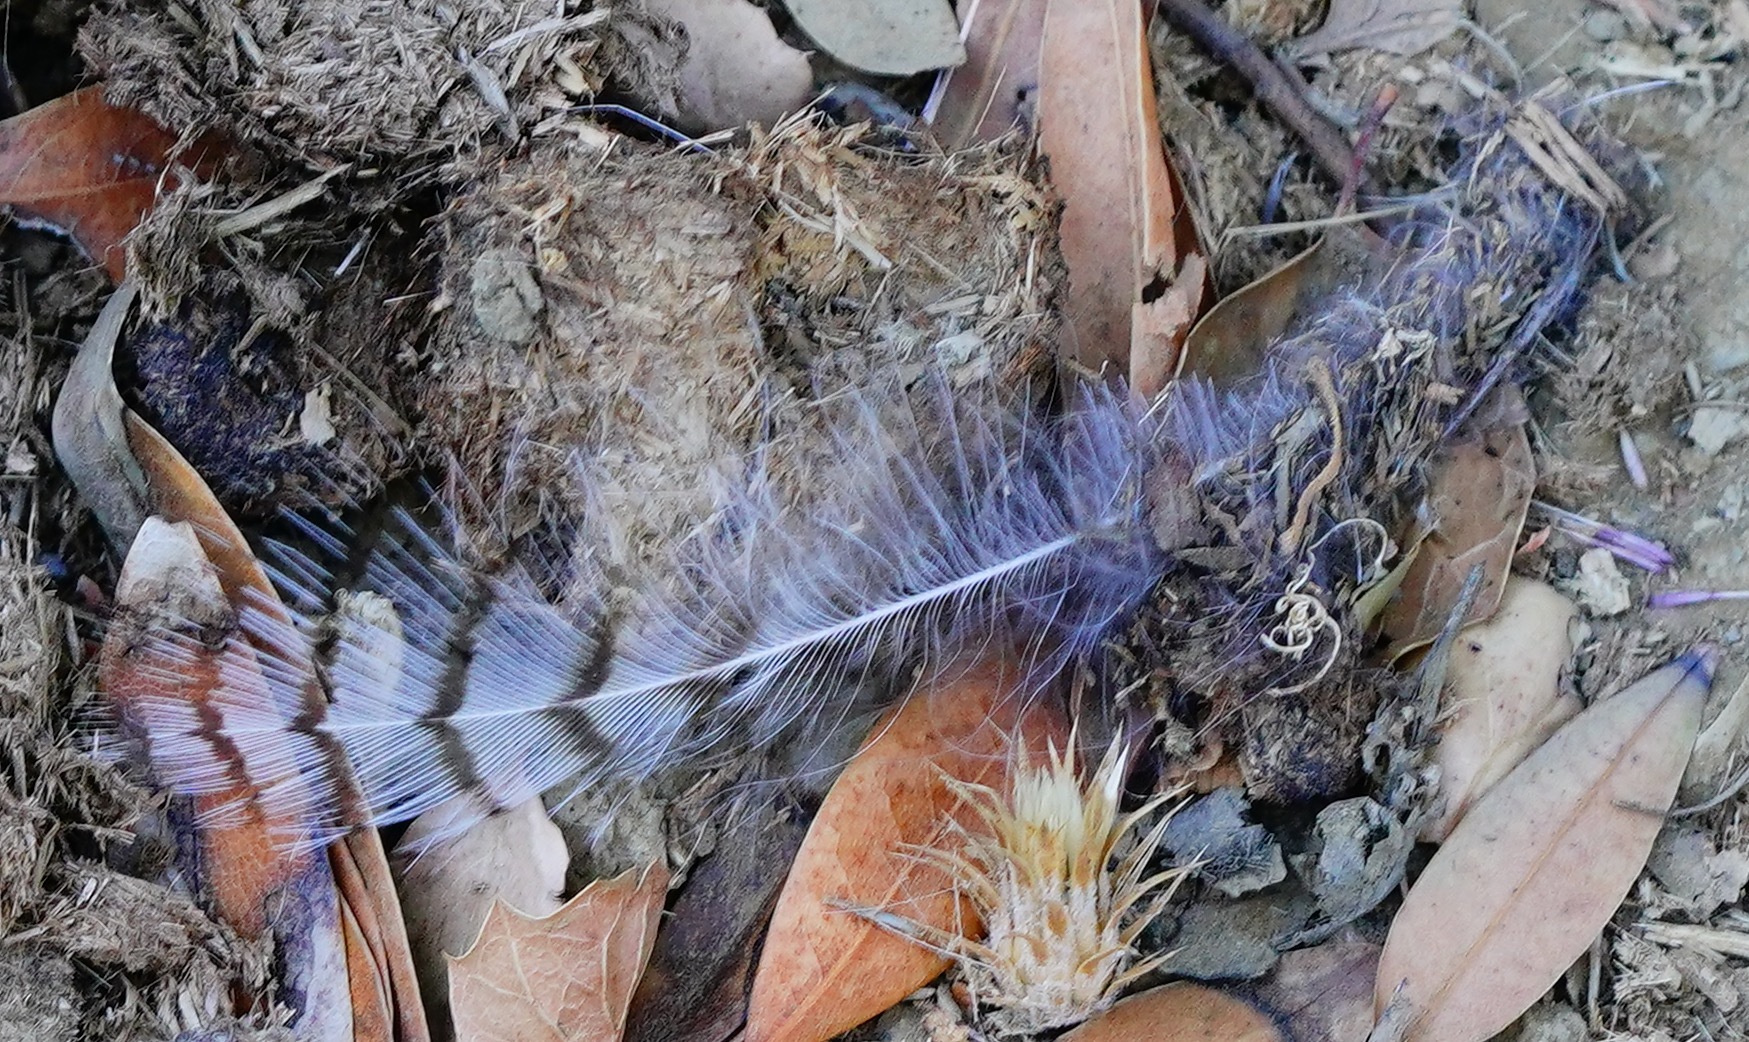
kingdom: Animalia
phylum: Chordata
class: Aves
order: Strigiformes
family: Strigidae
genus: Bubo
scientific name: Bubo virginianus
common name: Great horned owl
